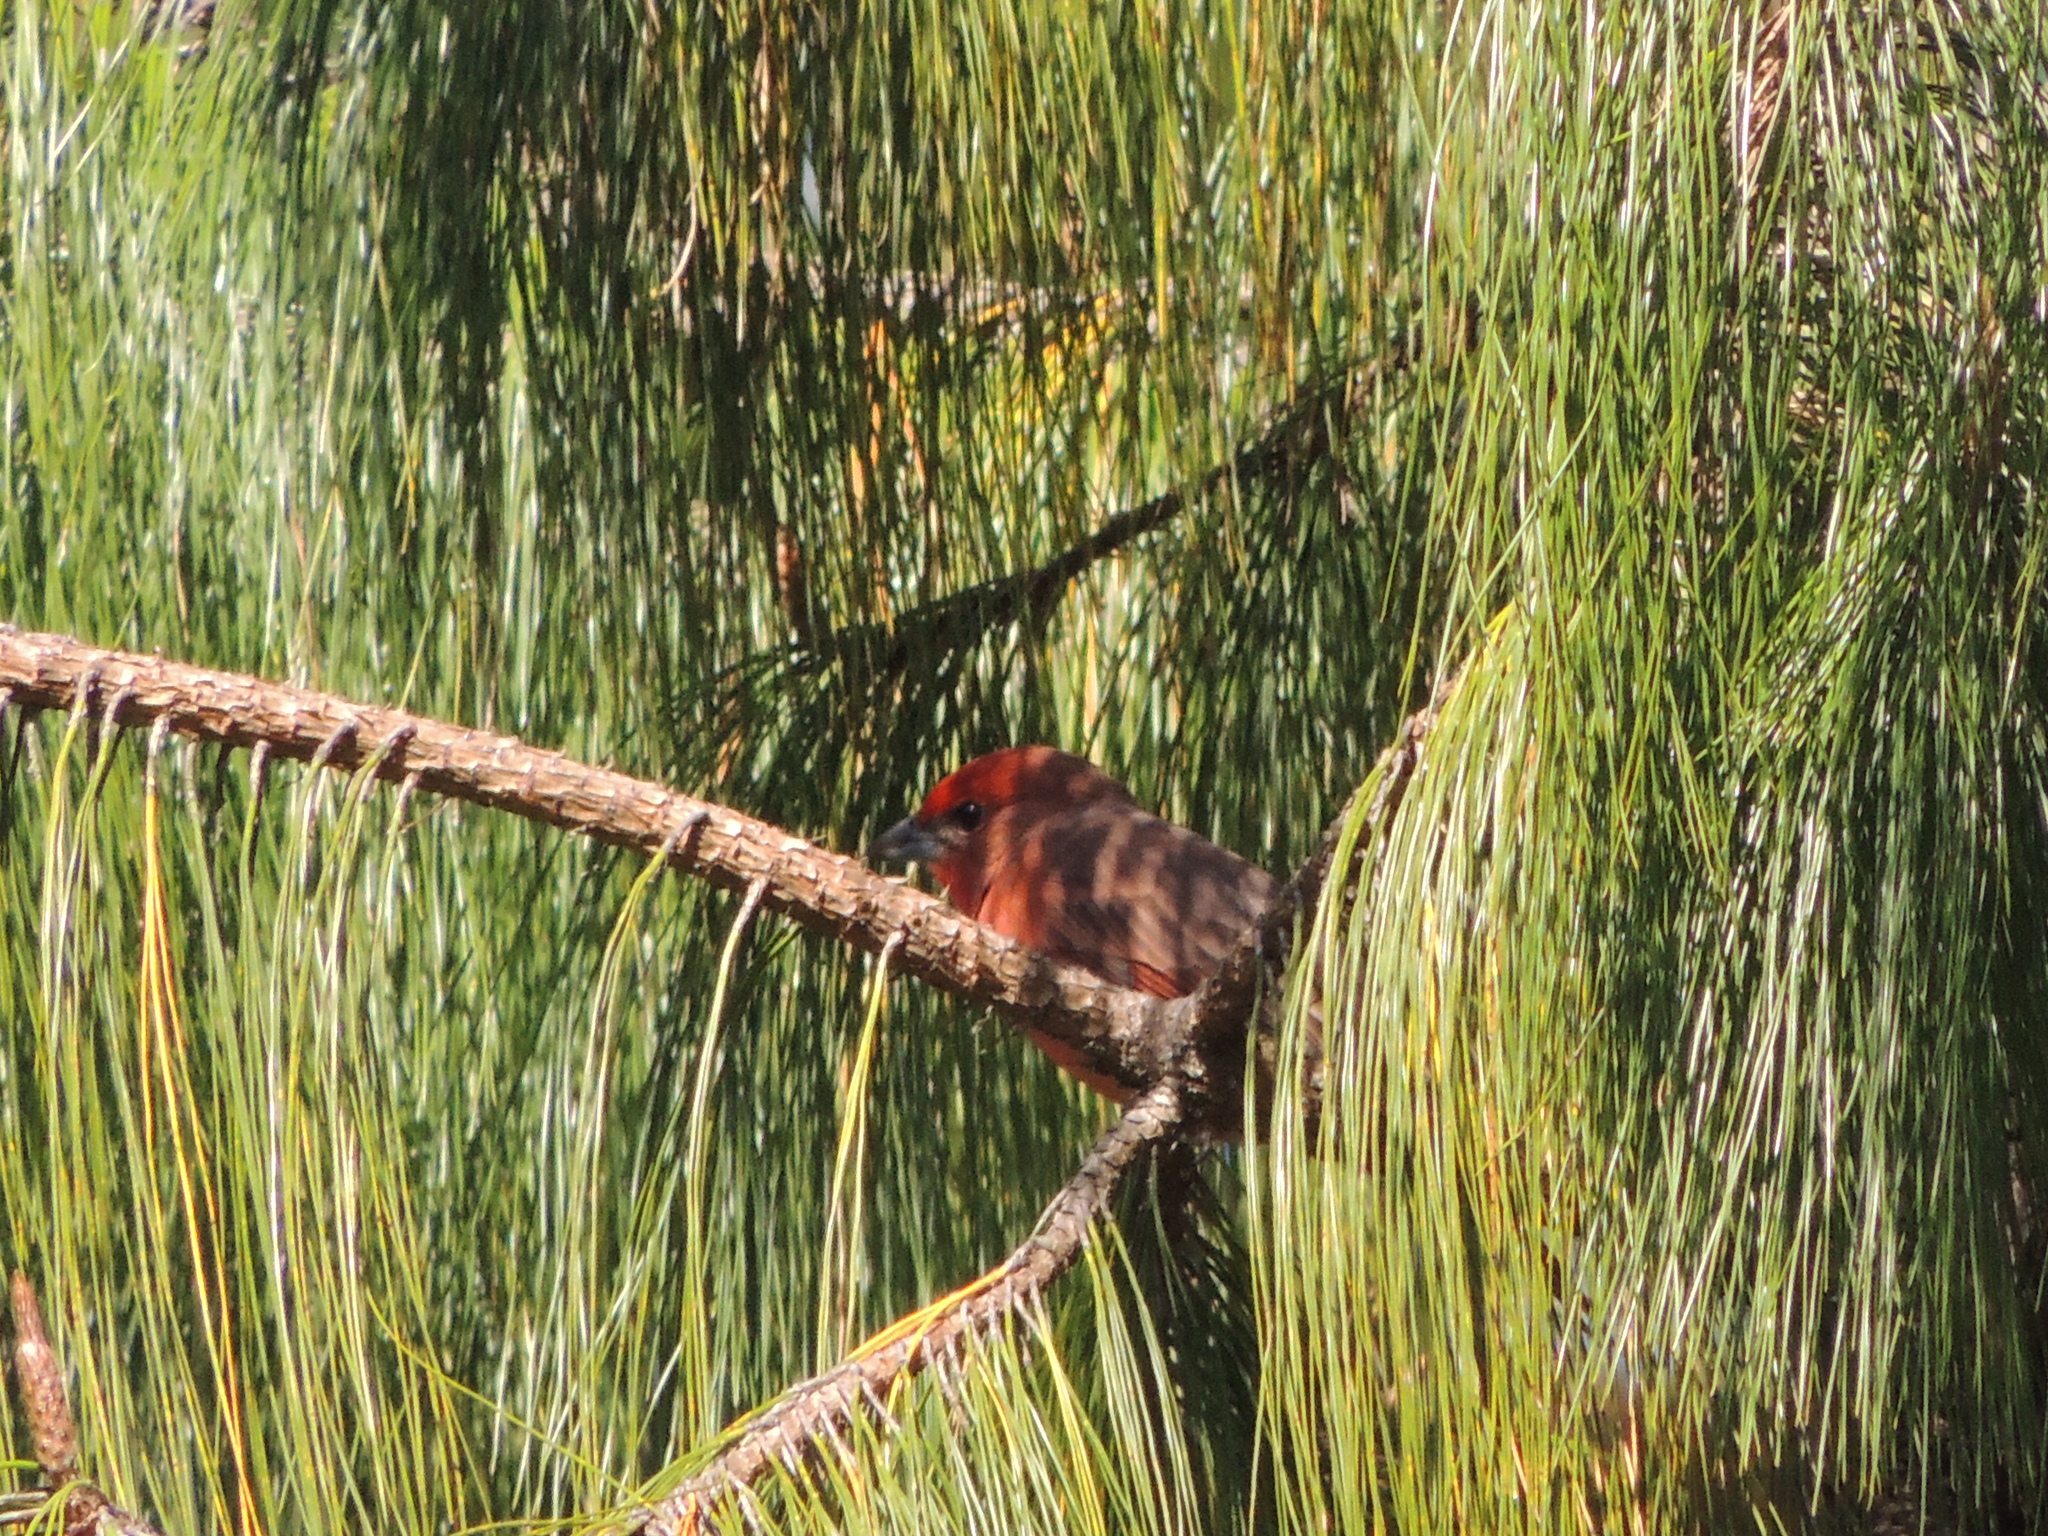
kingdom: Animalia
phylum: Chordata
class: Aves
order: Passeriformes
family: Cardinalidae
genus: Piranga
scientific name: Piranga flava
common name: Red tanager
